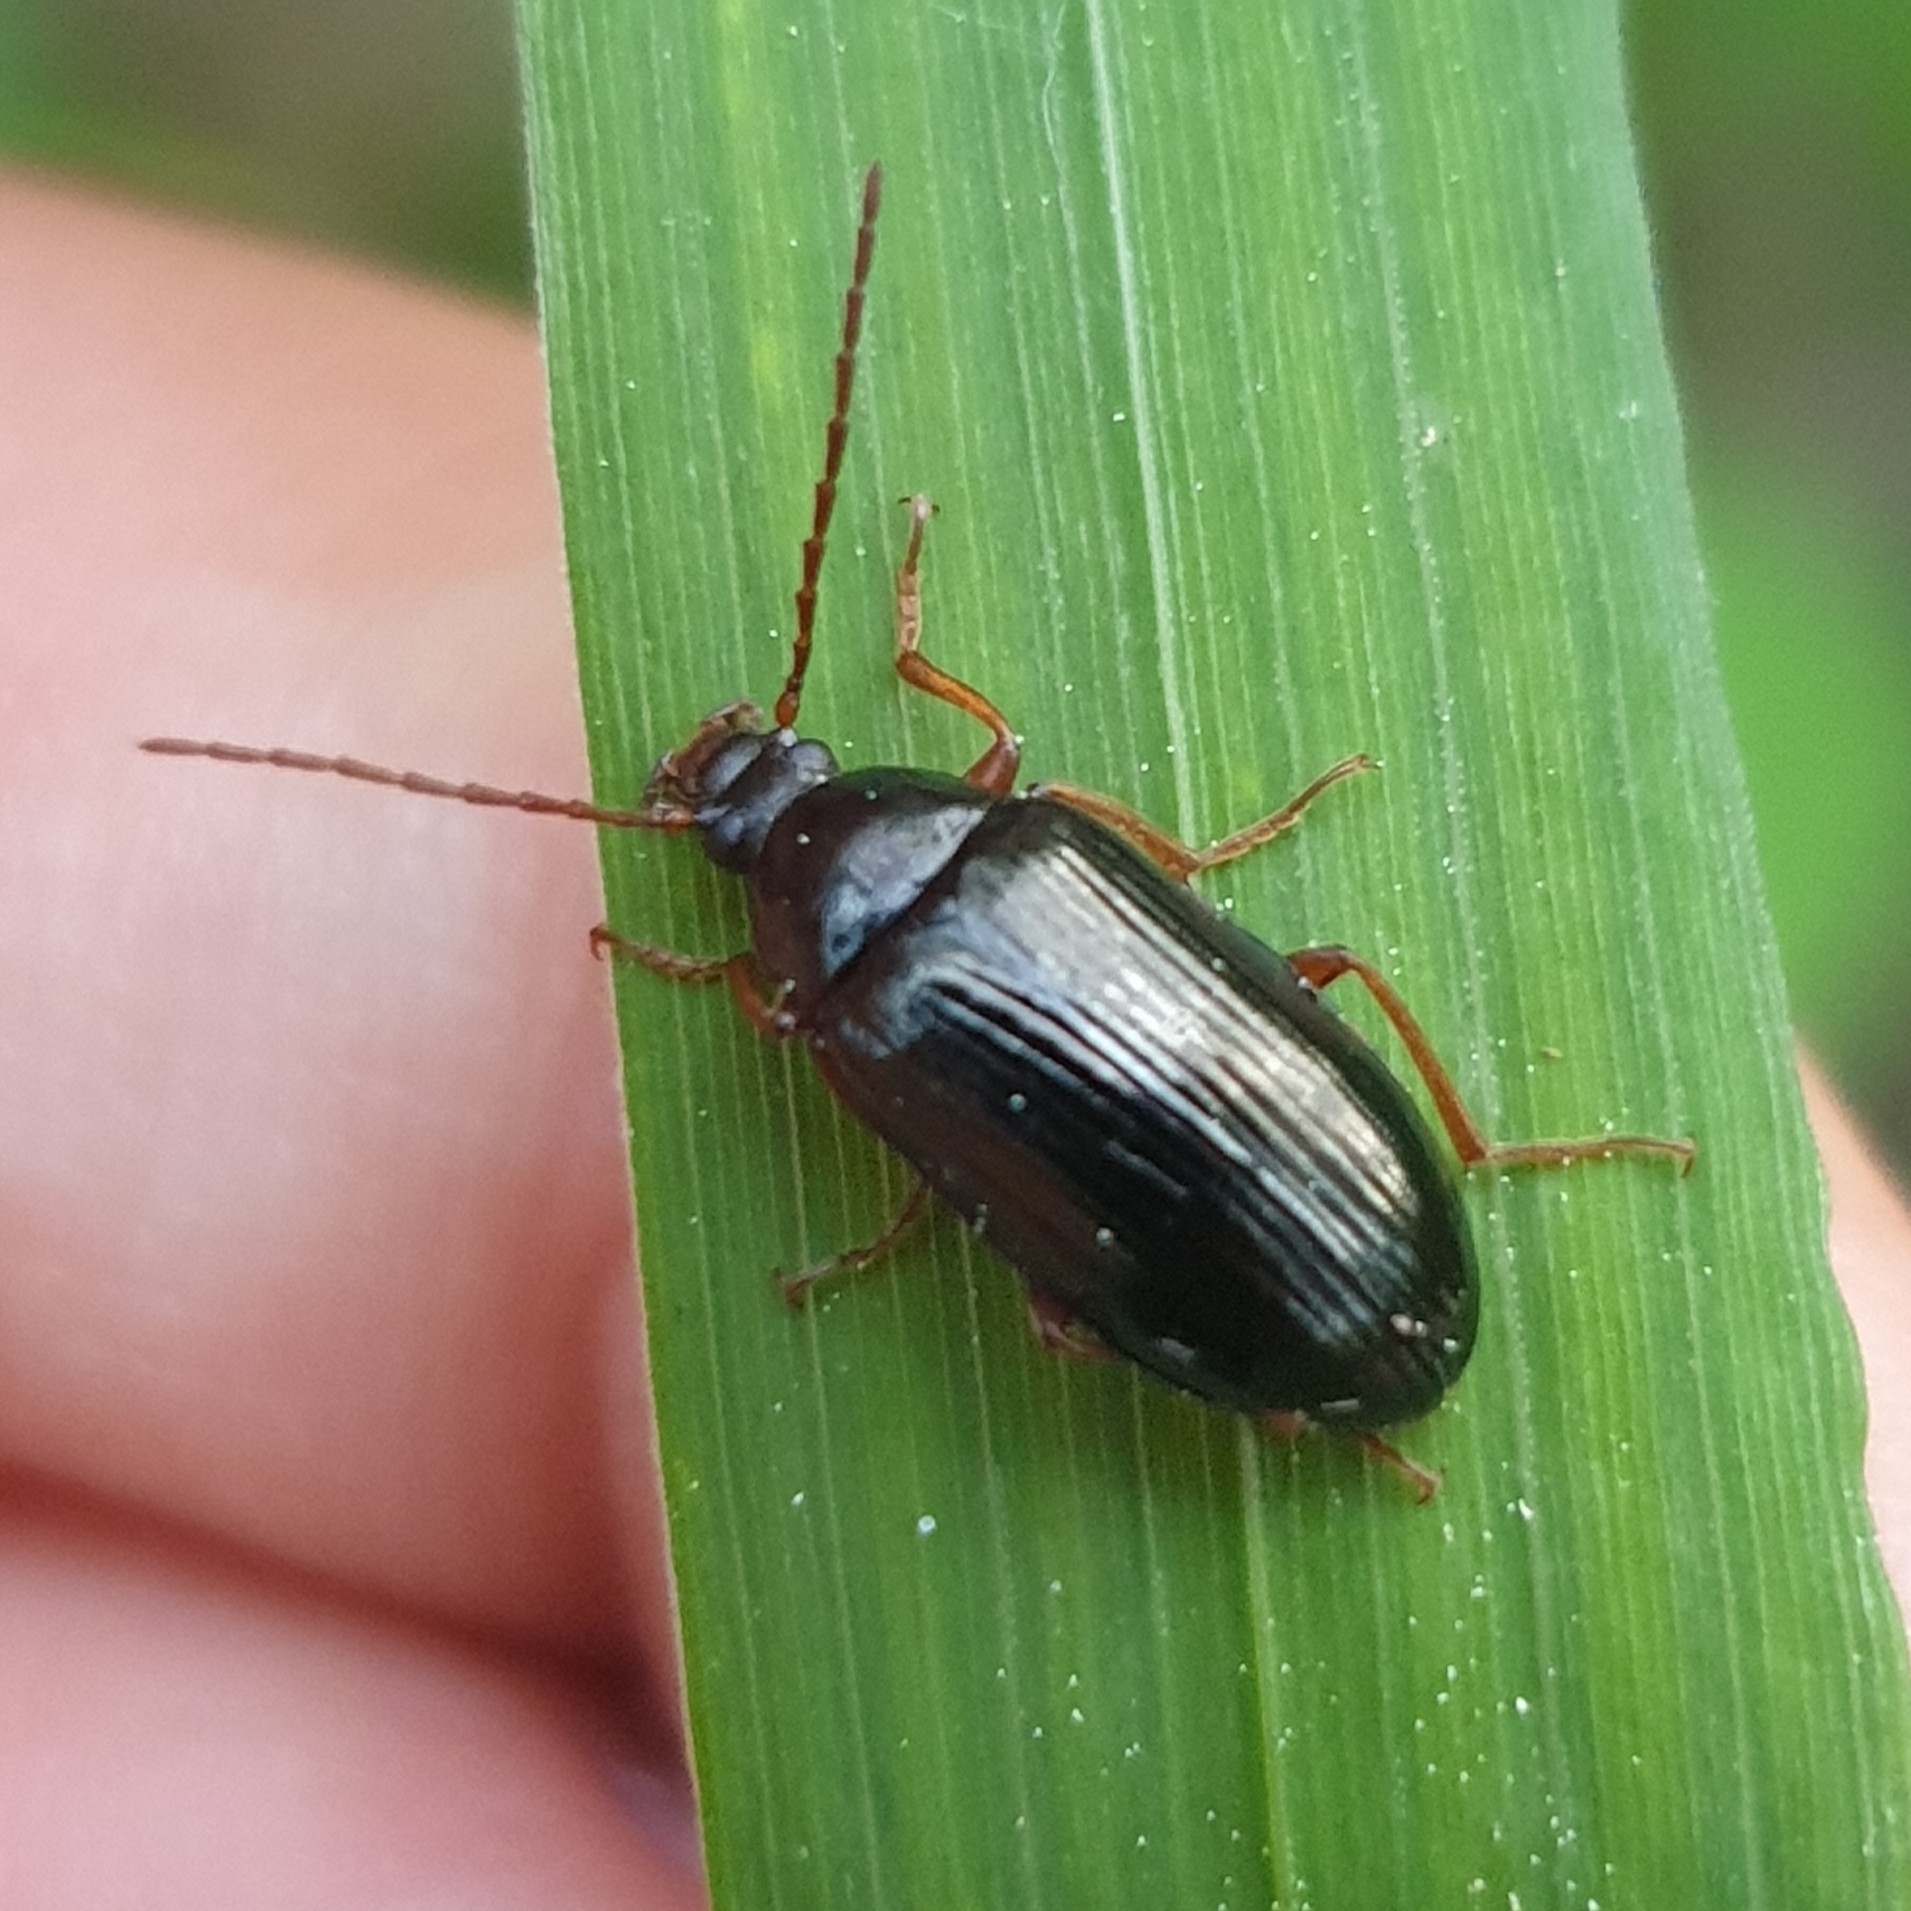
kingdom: Animalia
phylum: Arthropoda
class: Insecta
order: Coleoptera
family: Tenebrionidae
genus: Gonodera
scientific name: Gonodera luperus
